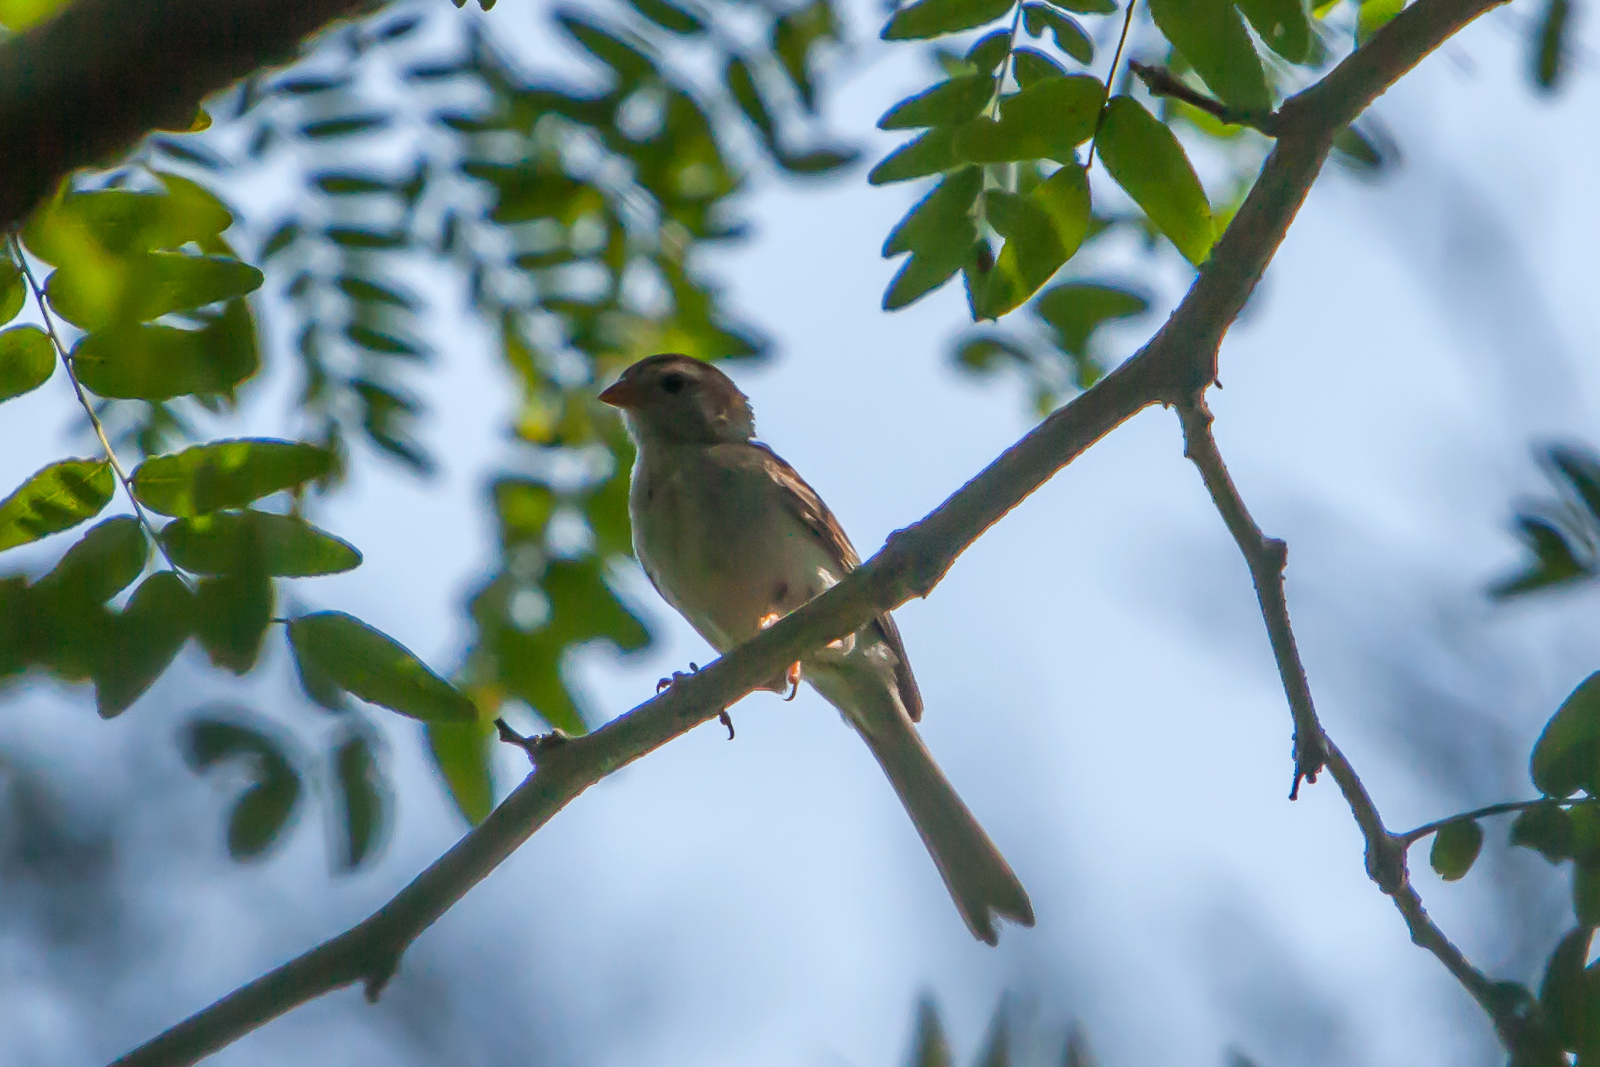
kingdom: Animalia
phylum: Chordata
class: Aves
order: Passeriformes
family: Passerellidae
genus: Spizella
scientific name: Spizella pusilla
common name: Field sparrow
